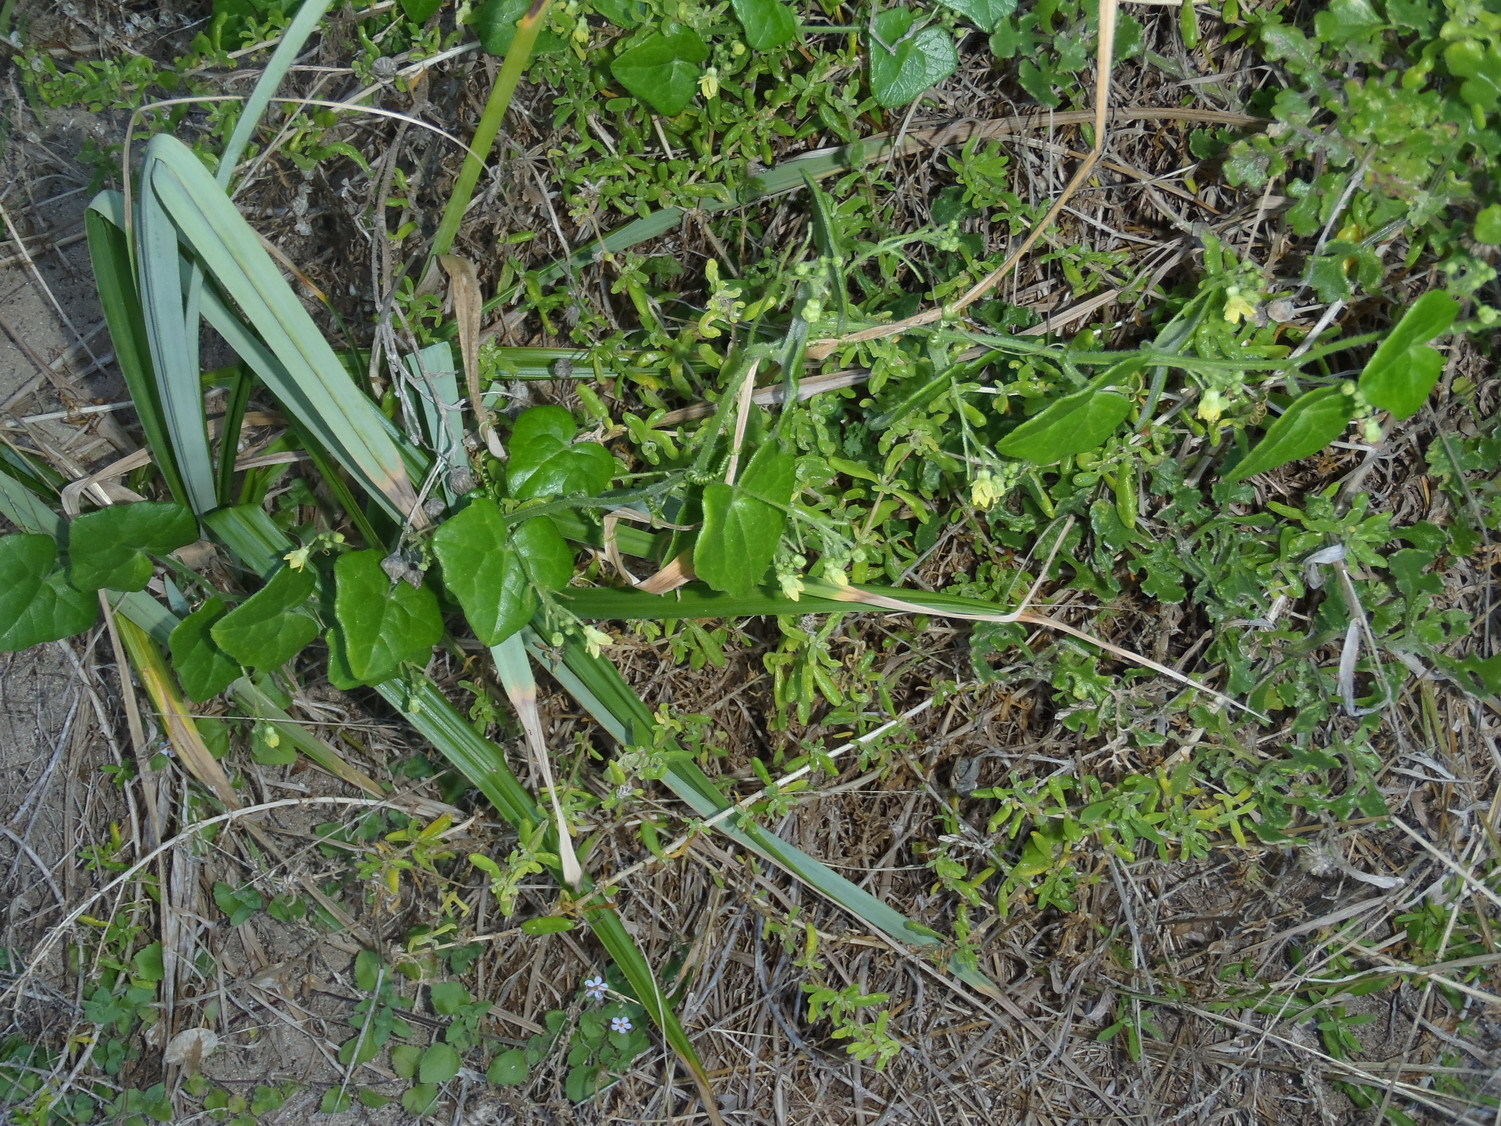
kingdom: Plantae
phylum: Tracheophyta
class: Magnoliopsida
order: Cucurbitales
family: Cucurbitaceae
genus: Kedrostis
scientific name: Kedrostis nana
